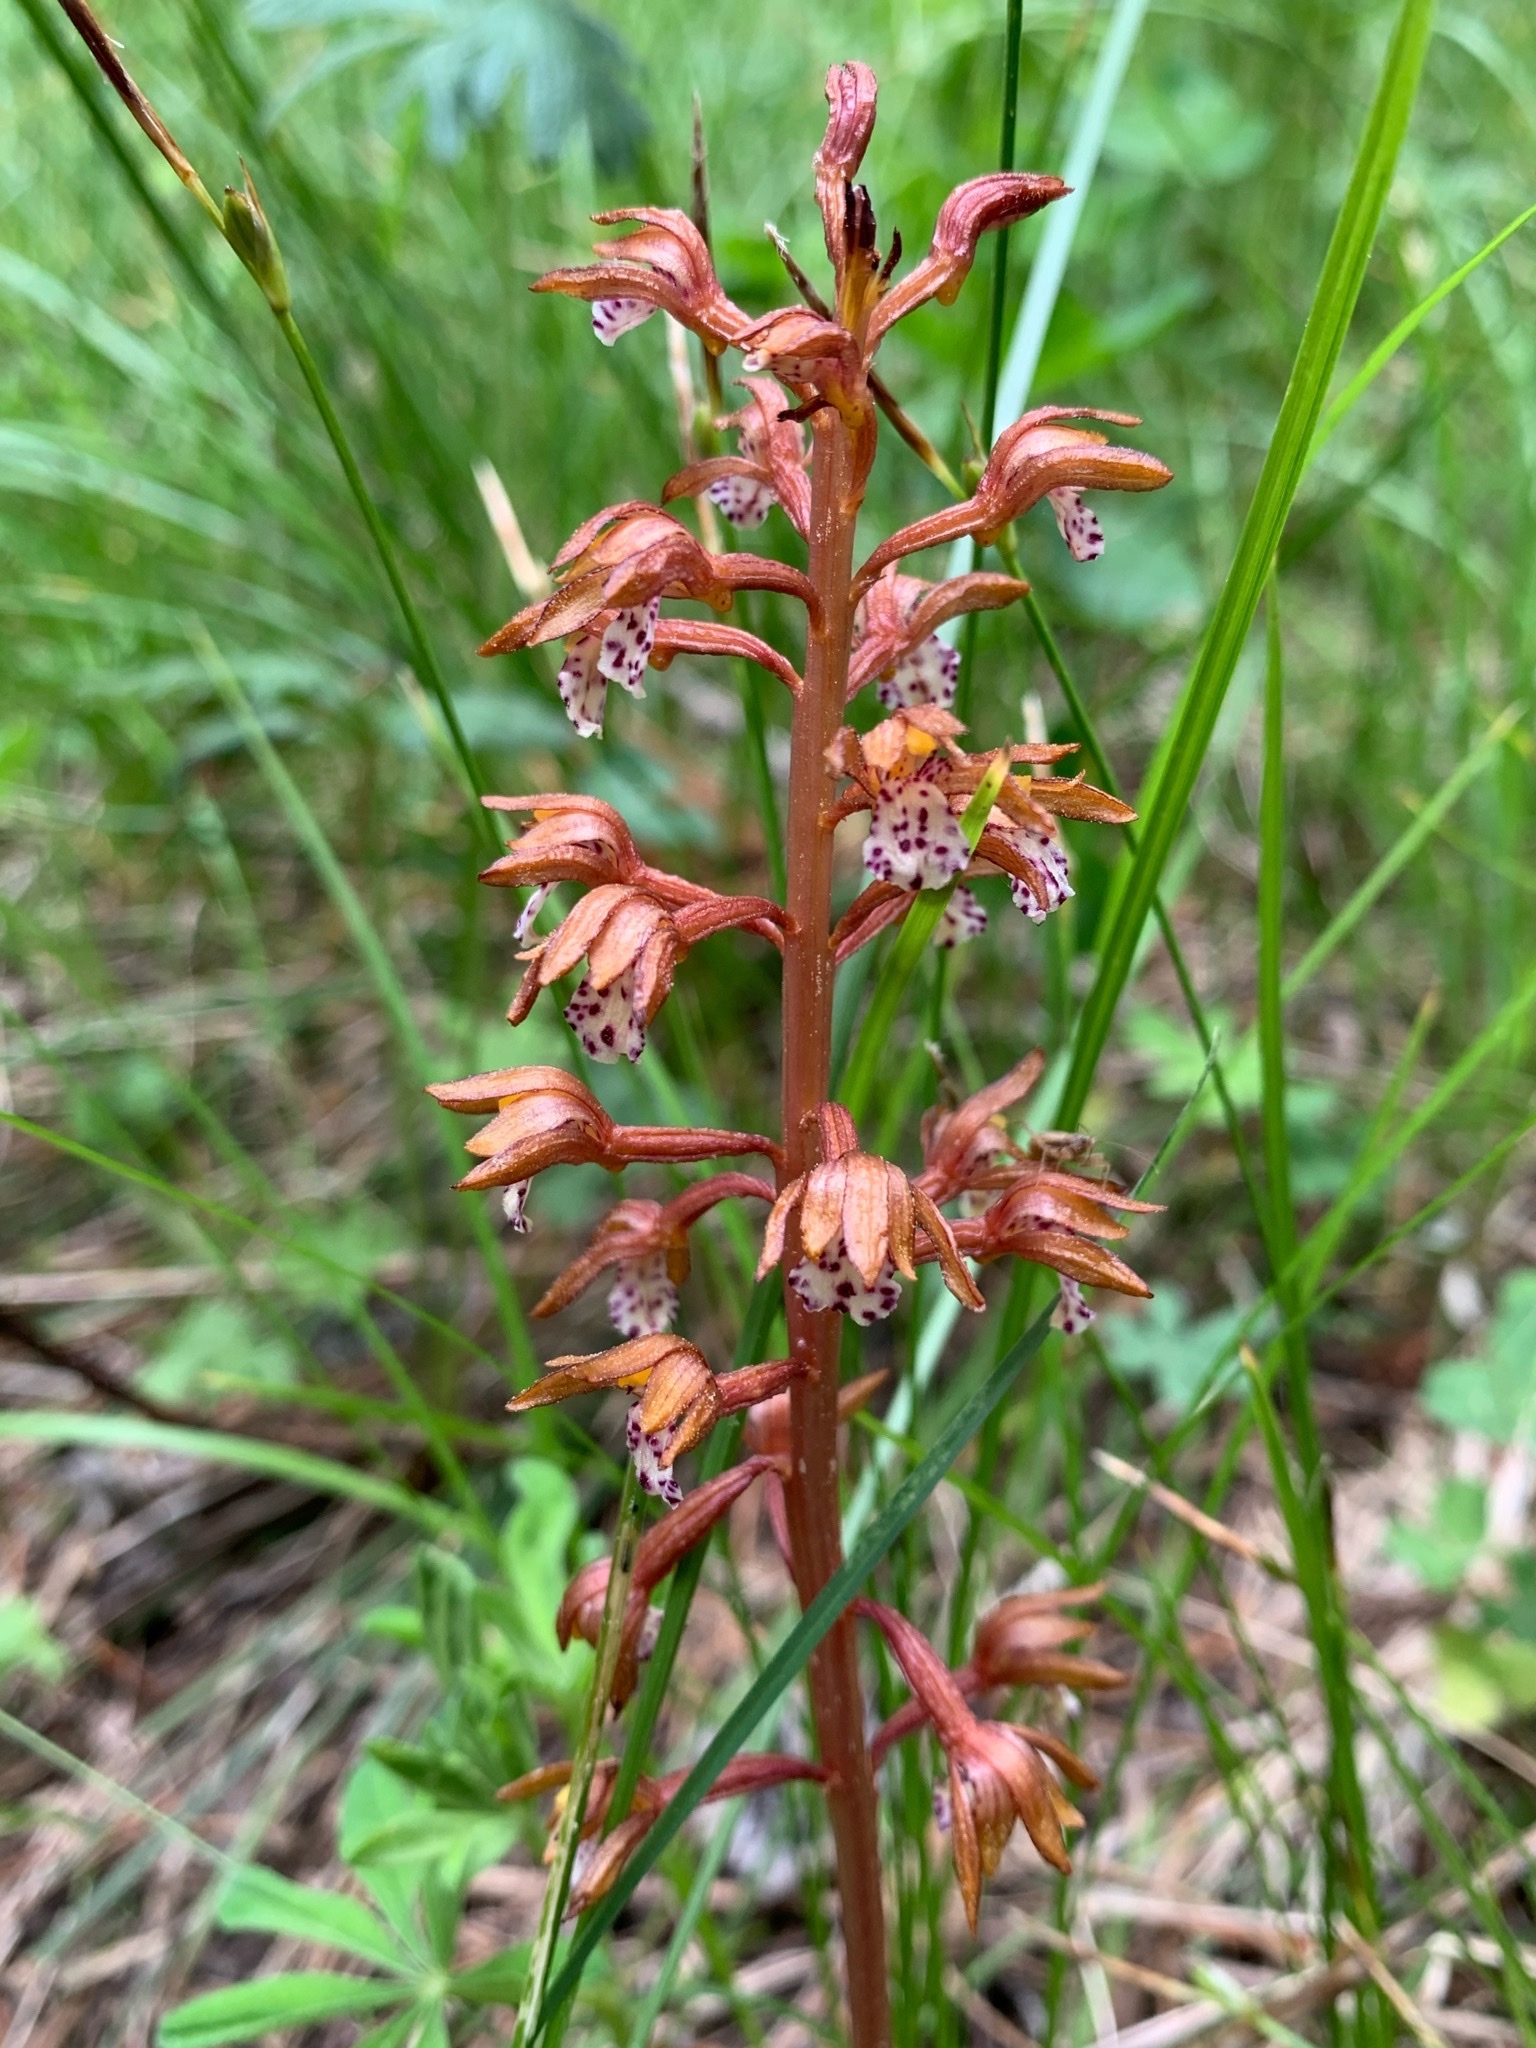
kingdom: Plantae
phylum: Tracheophyta
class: Liliopsida
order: Asparagales
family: Orchidaceae
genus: Corallorhiza
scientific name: Corallorhiza maculata
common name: Spotted coralroot
